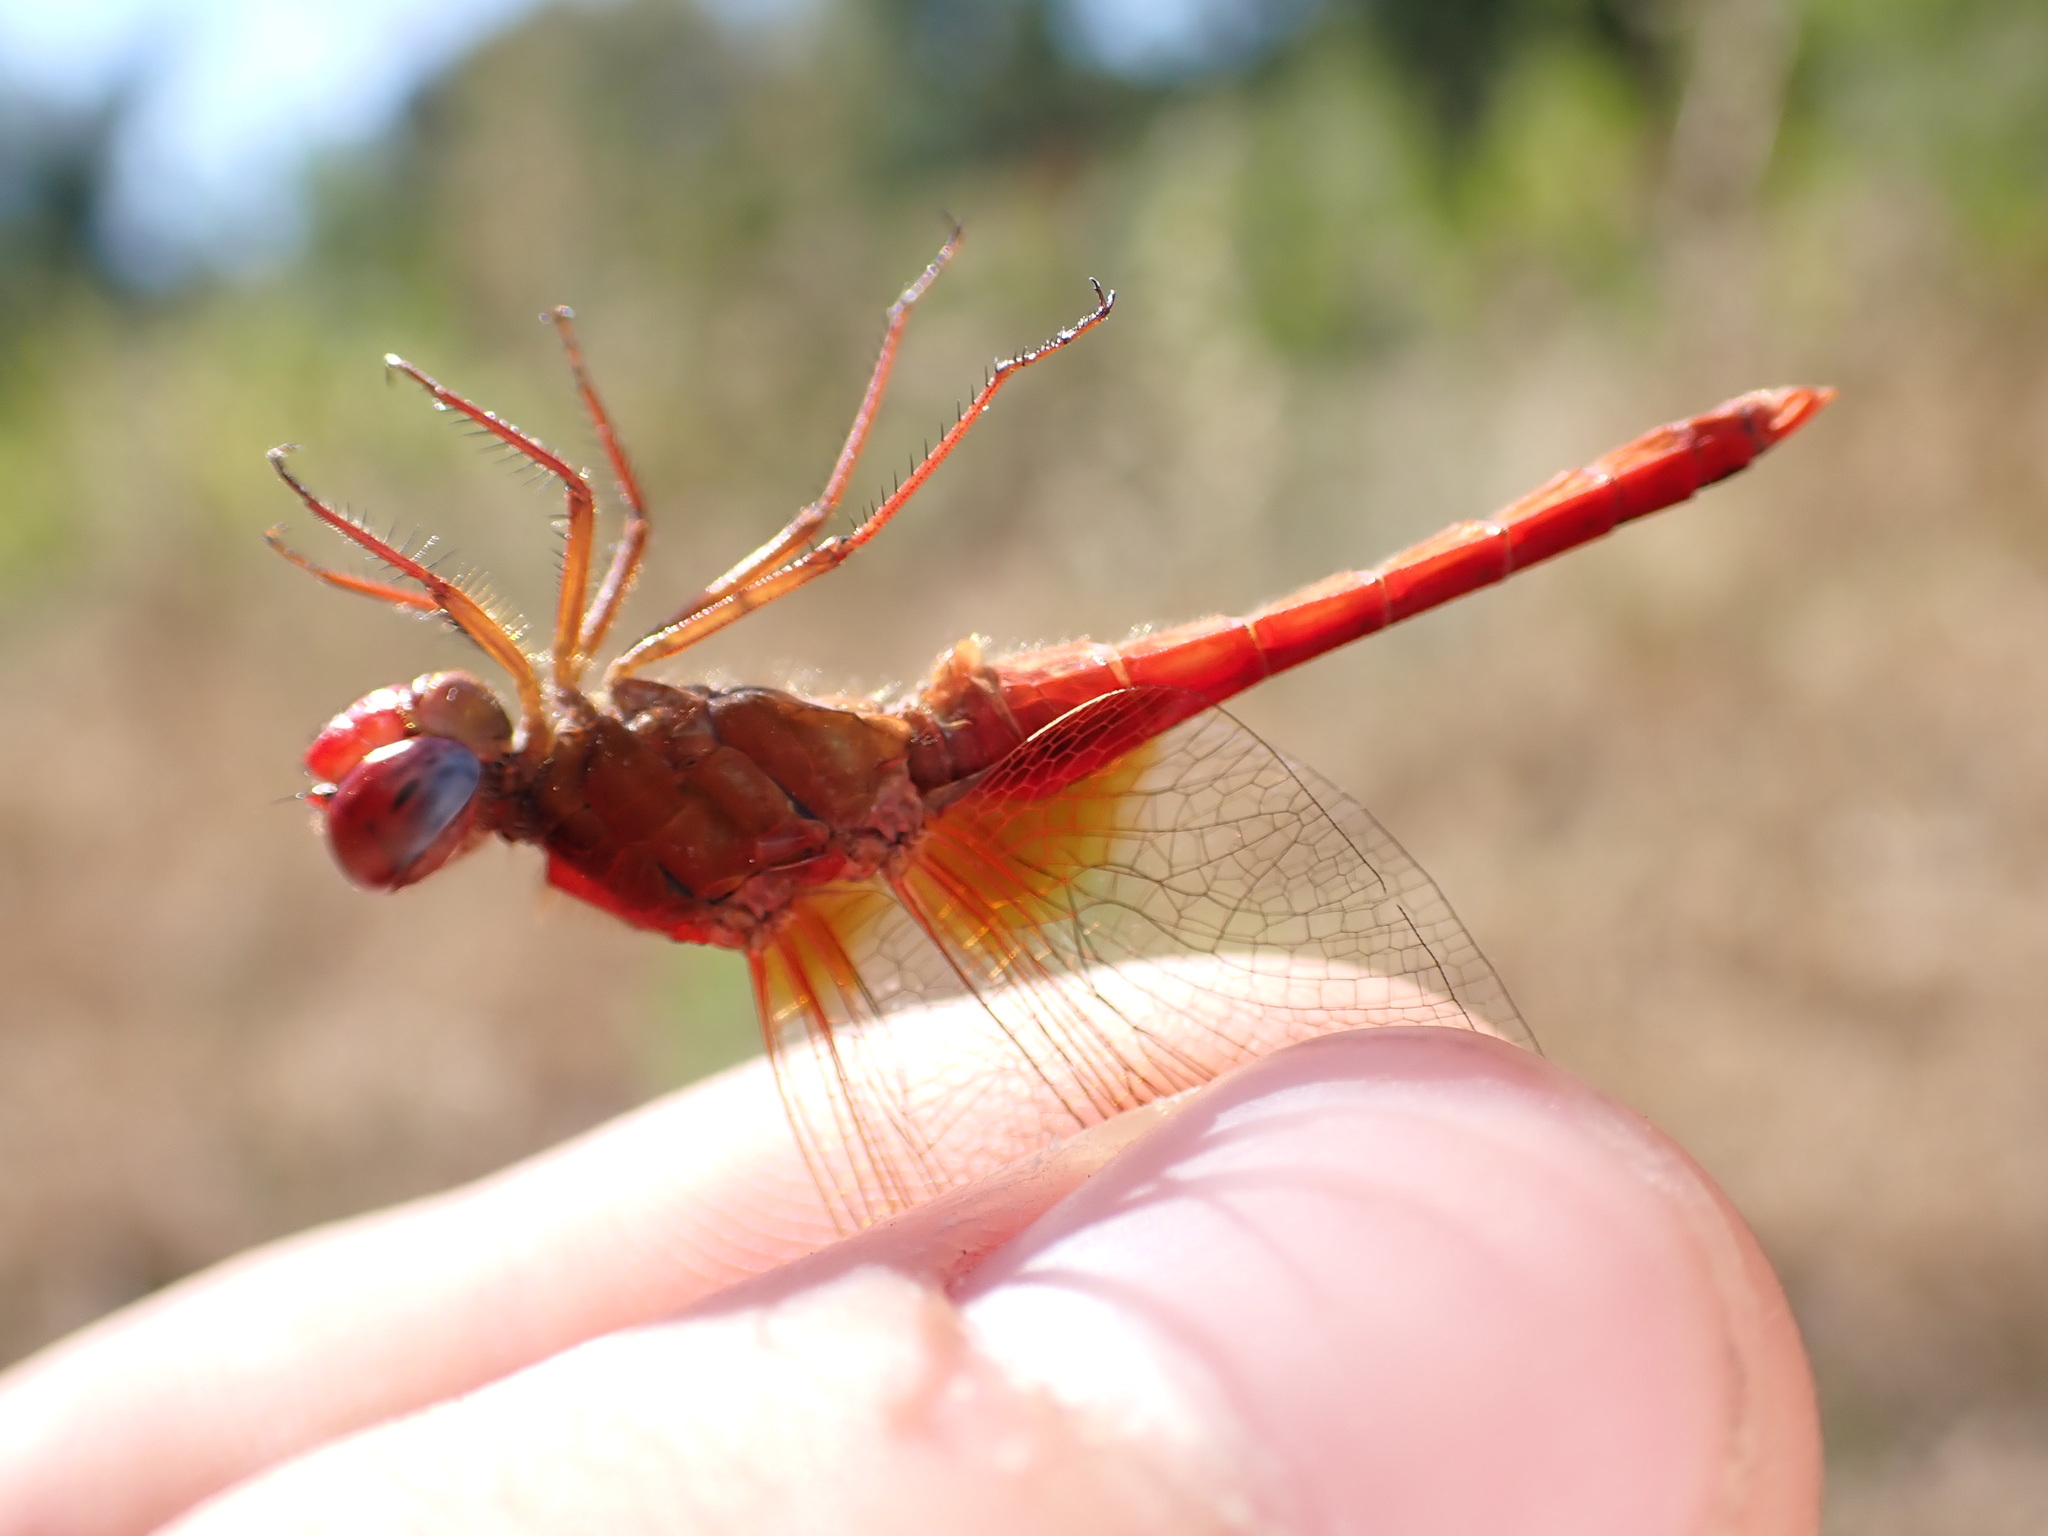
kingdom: Animalia
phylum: Arthropoda
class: Insecta
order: Odonata
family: Libellulidae
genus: Crocothemis
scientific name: Crocothemis erythraea
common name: Scarlet dragonfly
